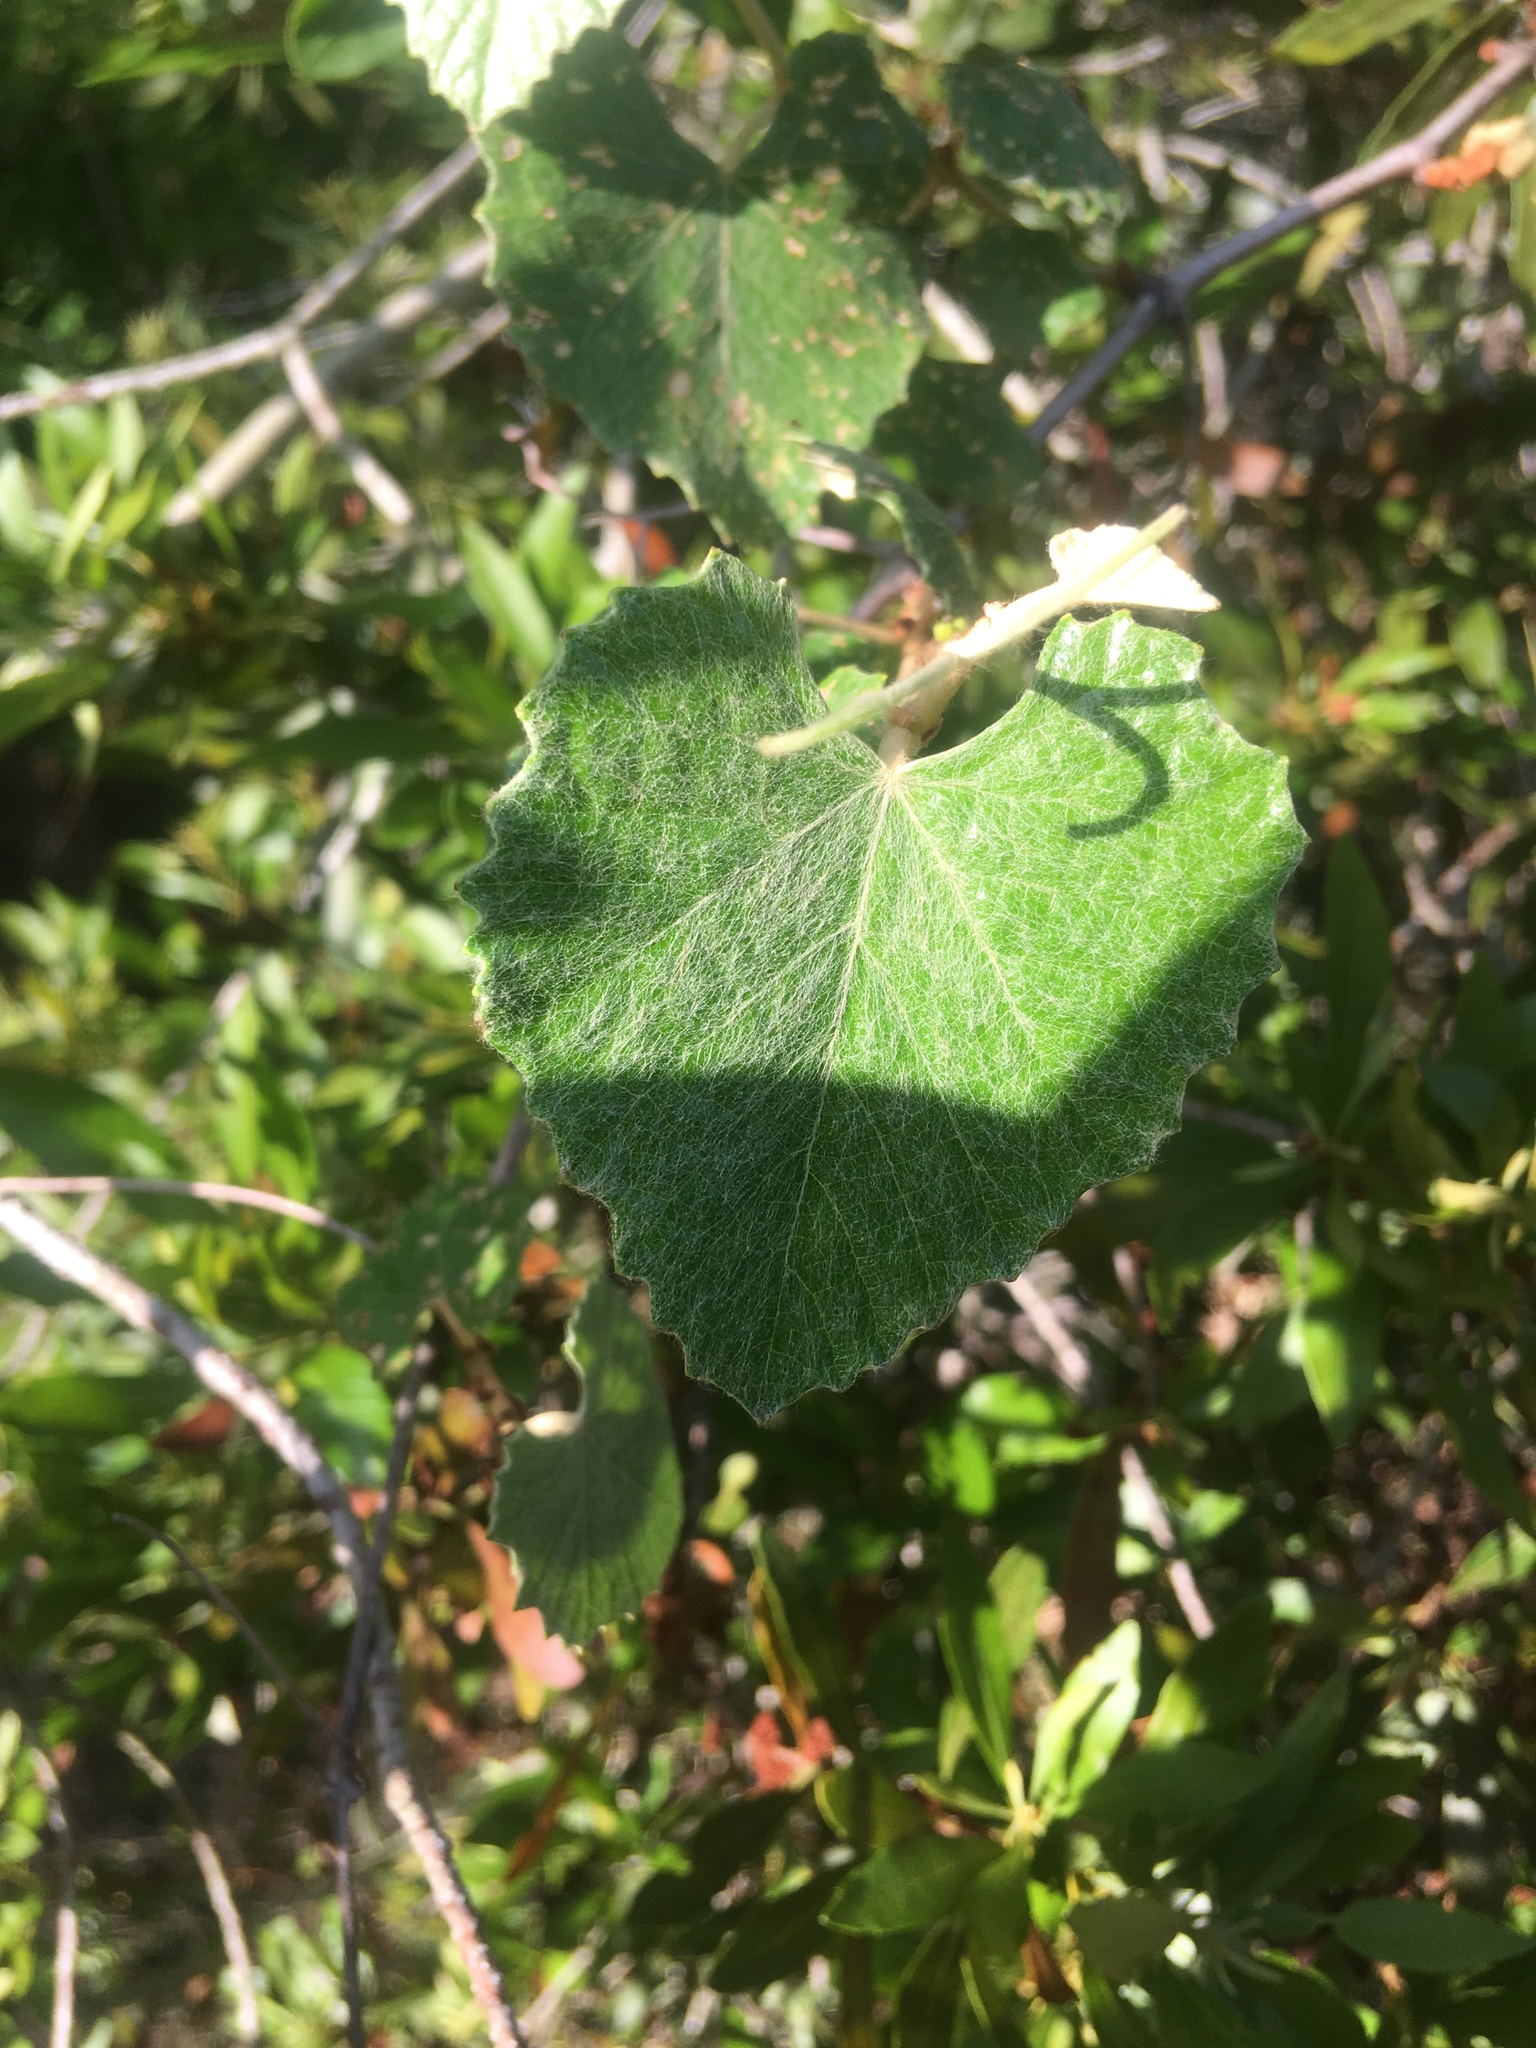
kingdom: Plantae
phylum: Tracheophyta
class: Magnoliopsida
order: Vitales
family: Vitaceae
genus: Vitis
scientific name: Vitis shuttleworthii
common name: Caloosa grape
